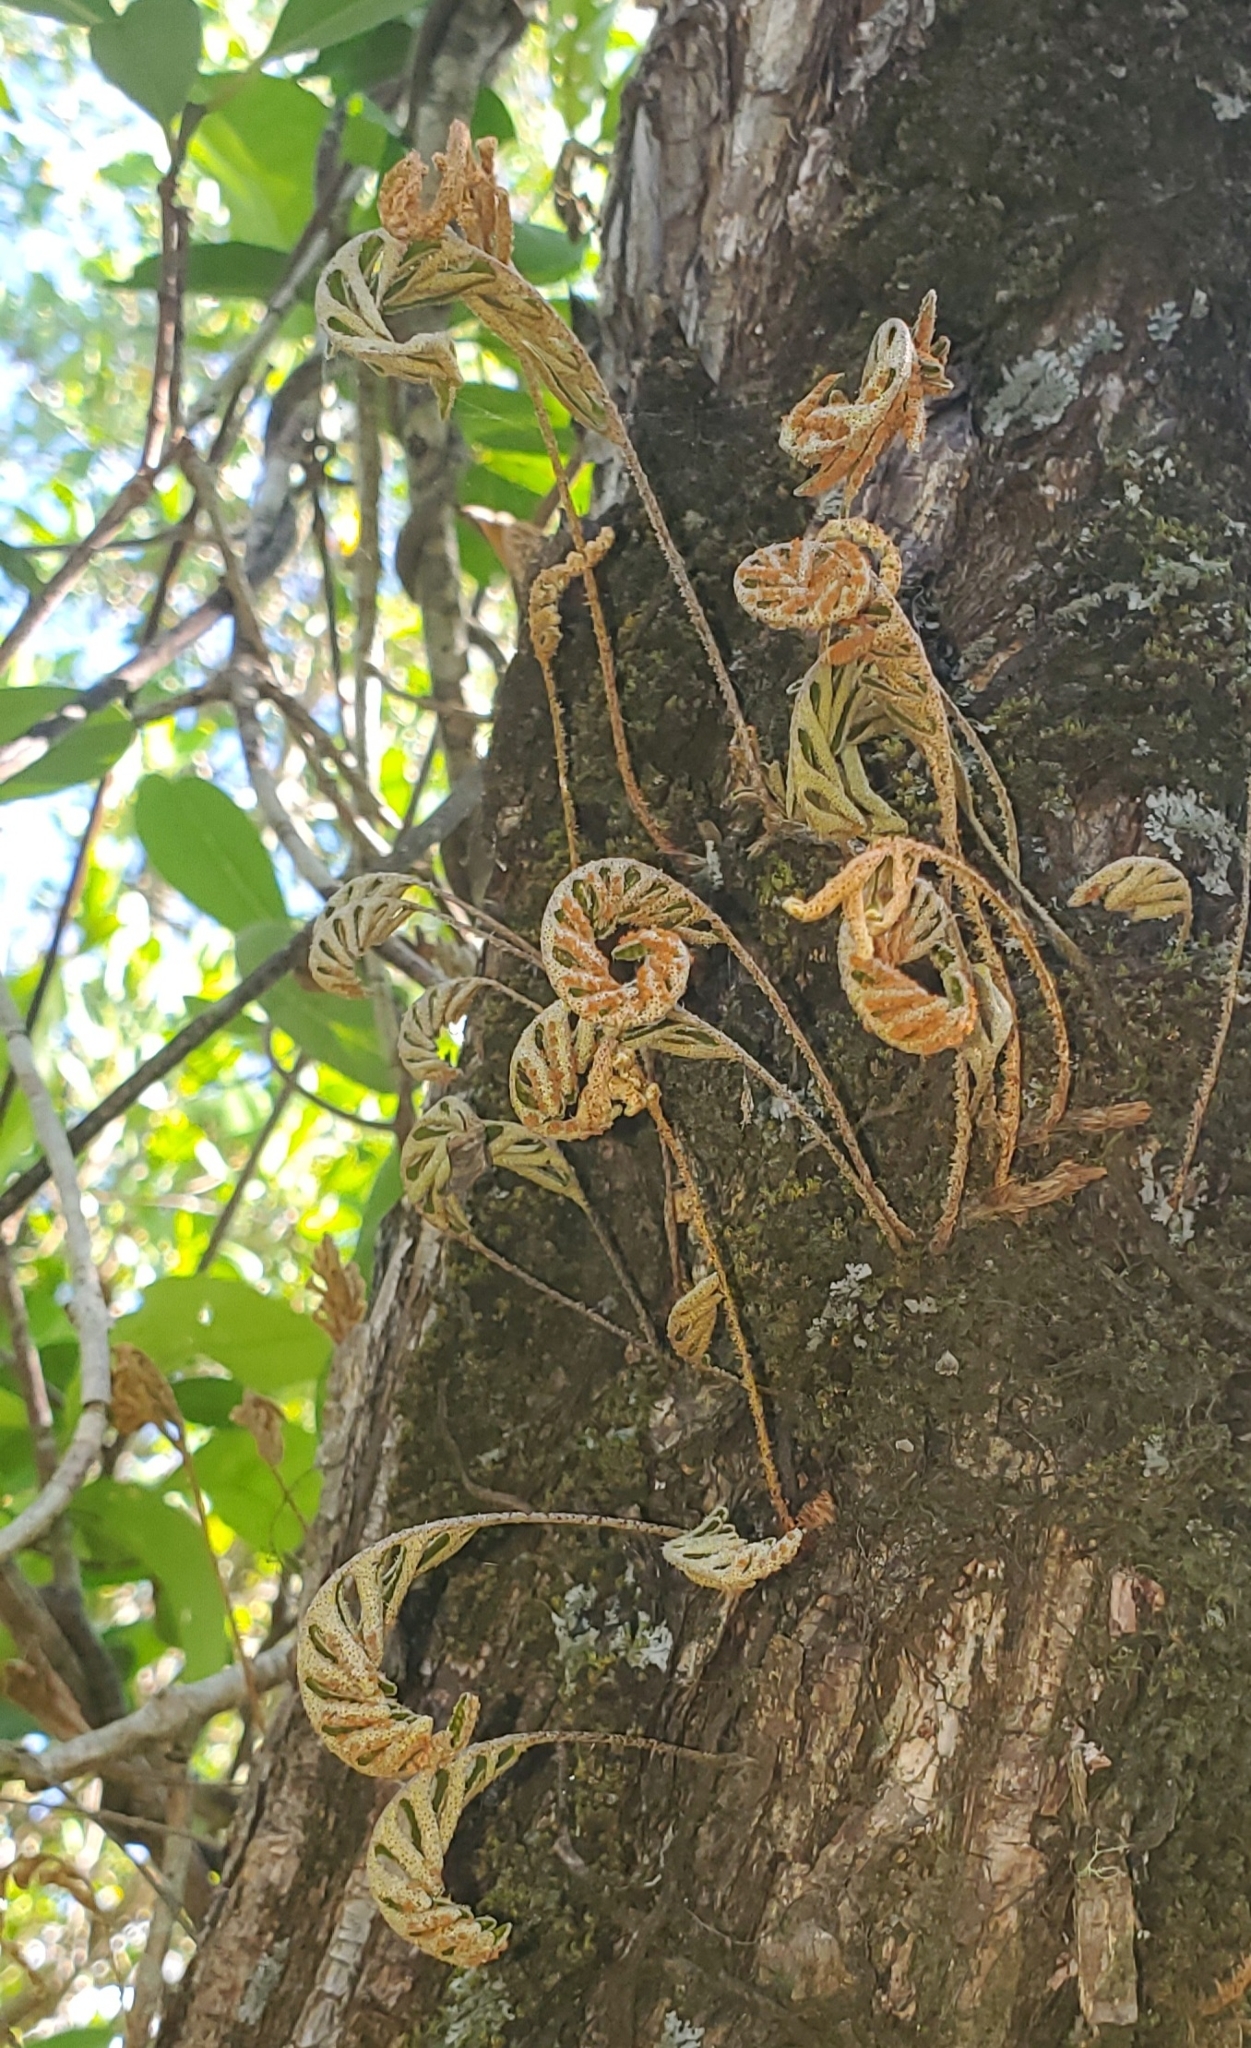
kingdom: Plantae
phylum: Tracheophyta
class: Polypodiopsida
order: Polypodiales
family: Polypodiaceae
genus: Pleopeltis
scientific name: Pleopeltis michauxiana
